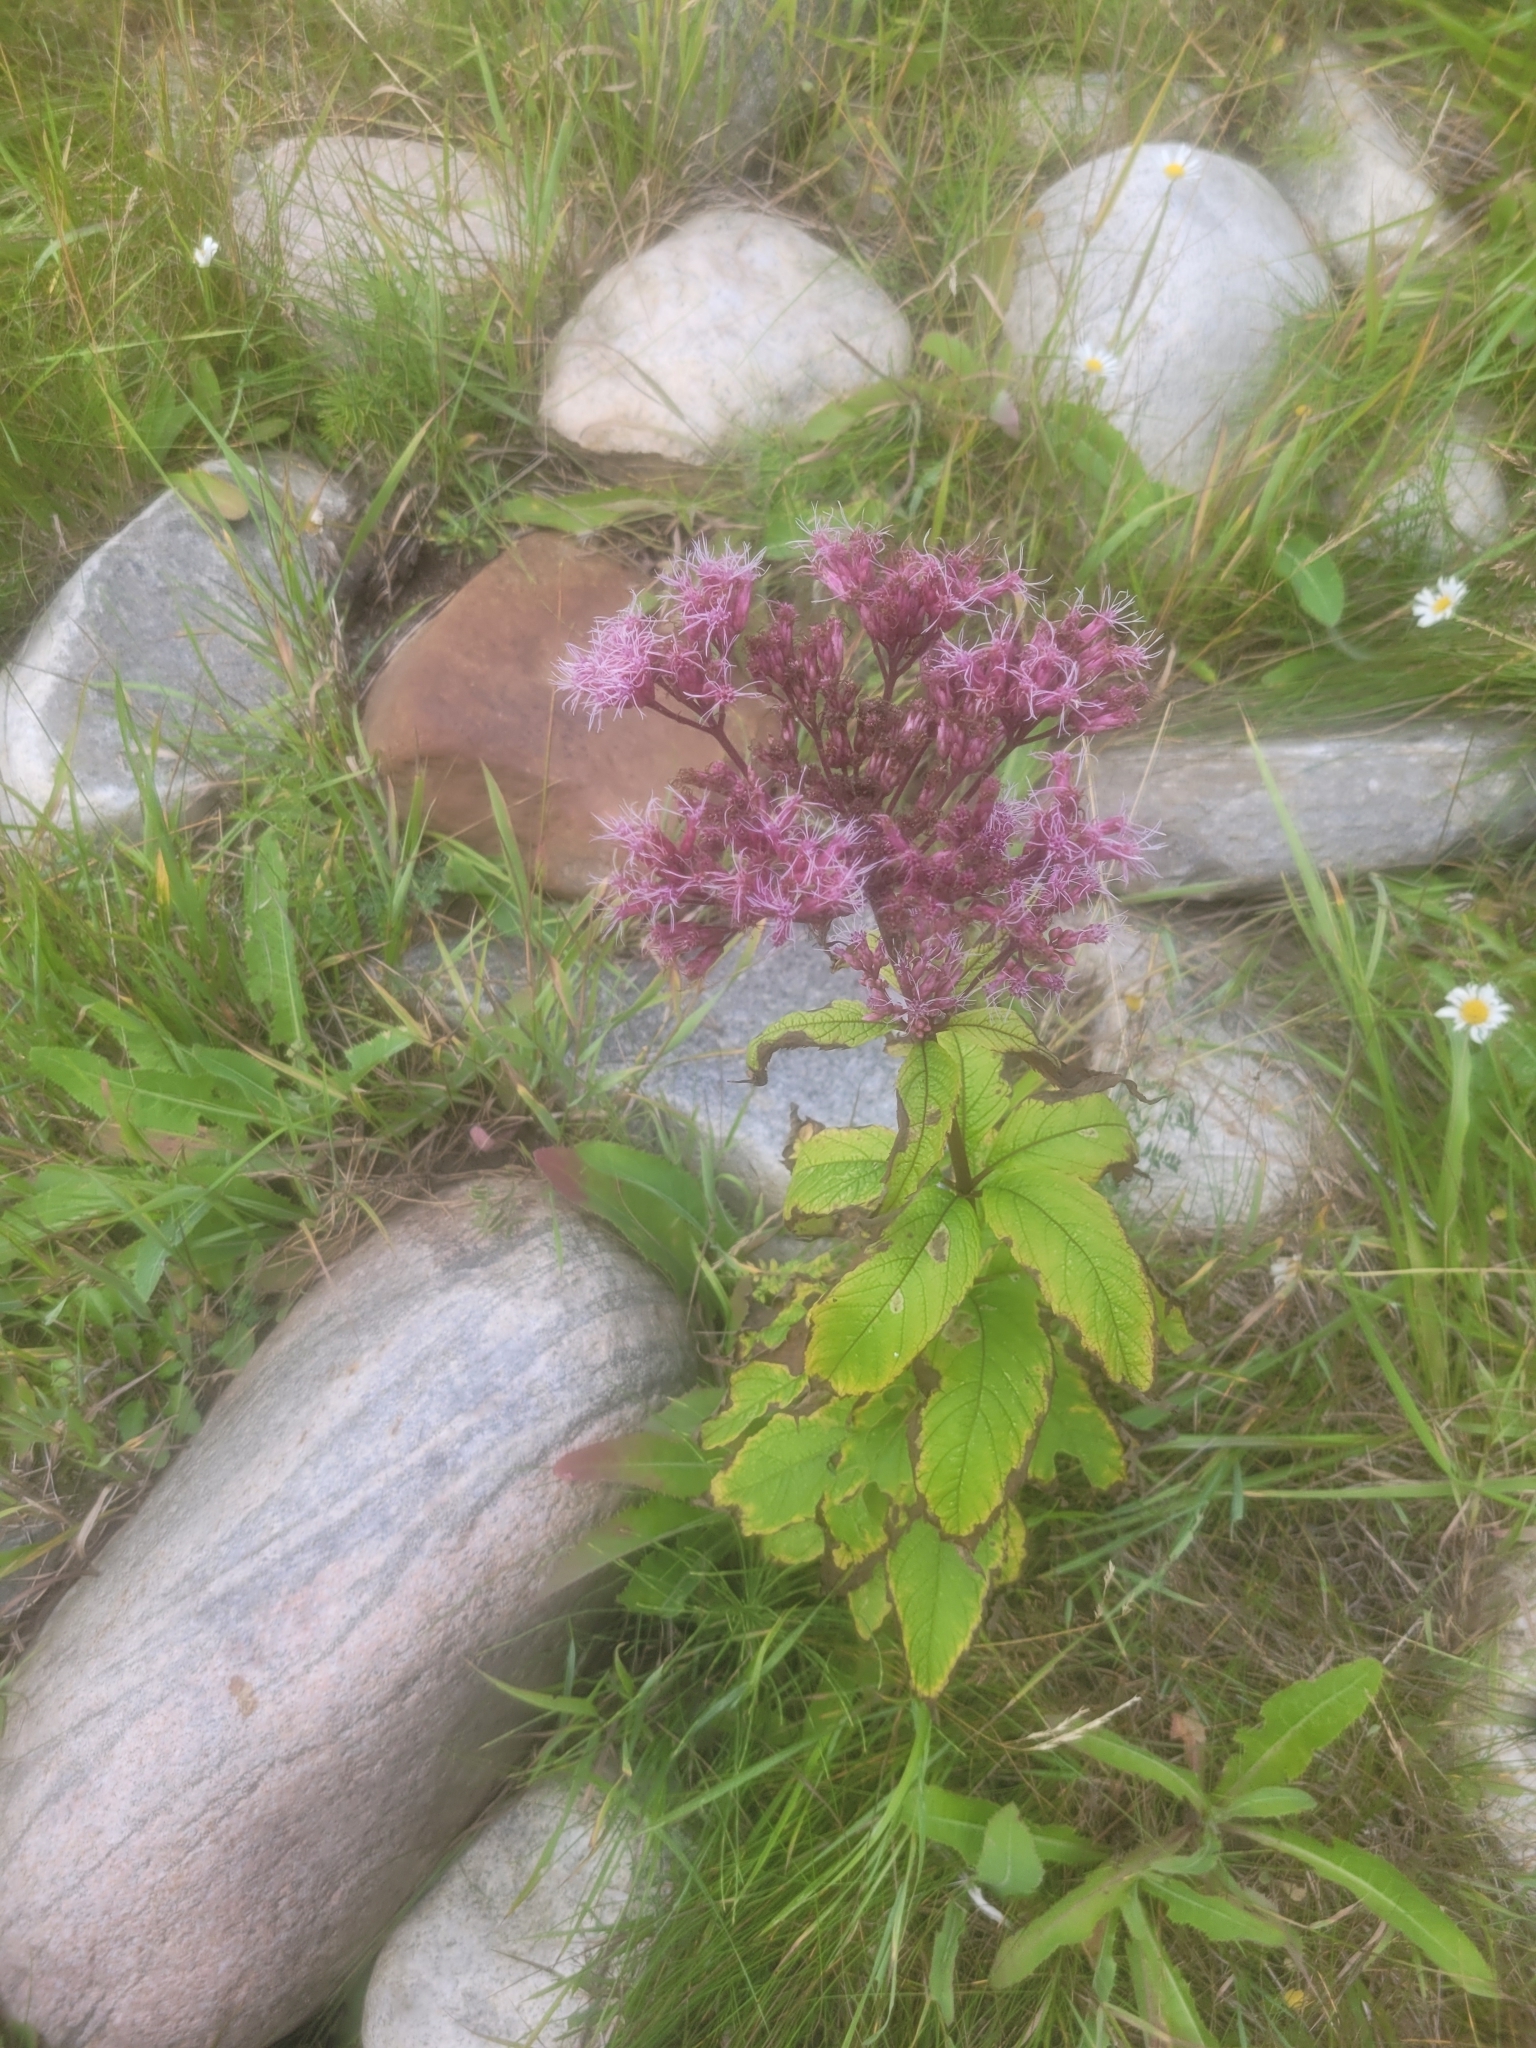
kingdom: Plantae
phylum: Tracheophyta
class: Magnoliopsida
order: Asterales
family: Asteraceae
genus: Eutrochium
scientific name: Eutrochium maculatum
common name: Spotted joe pye weed
